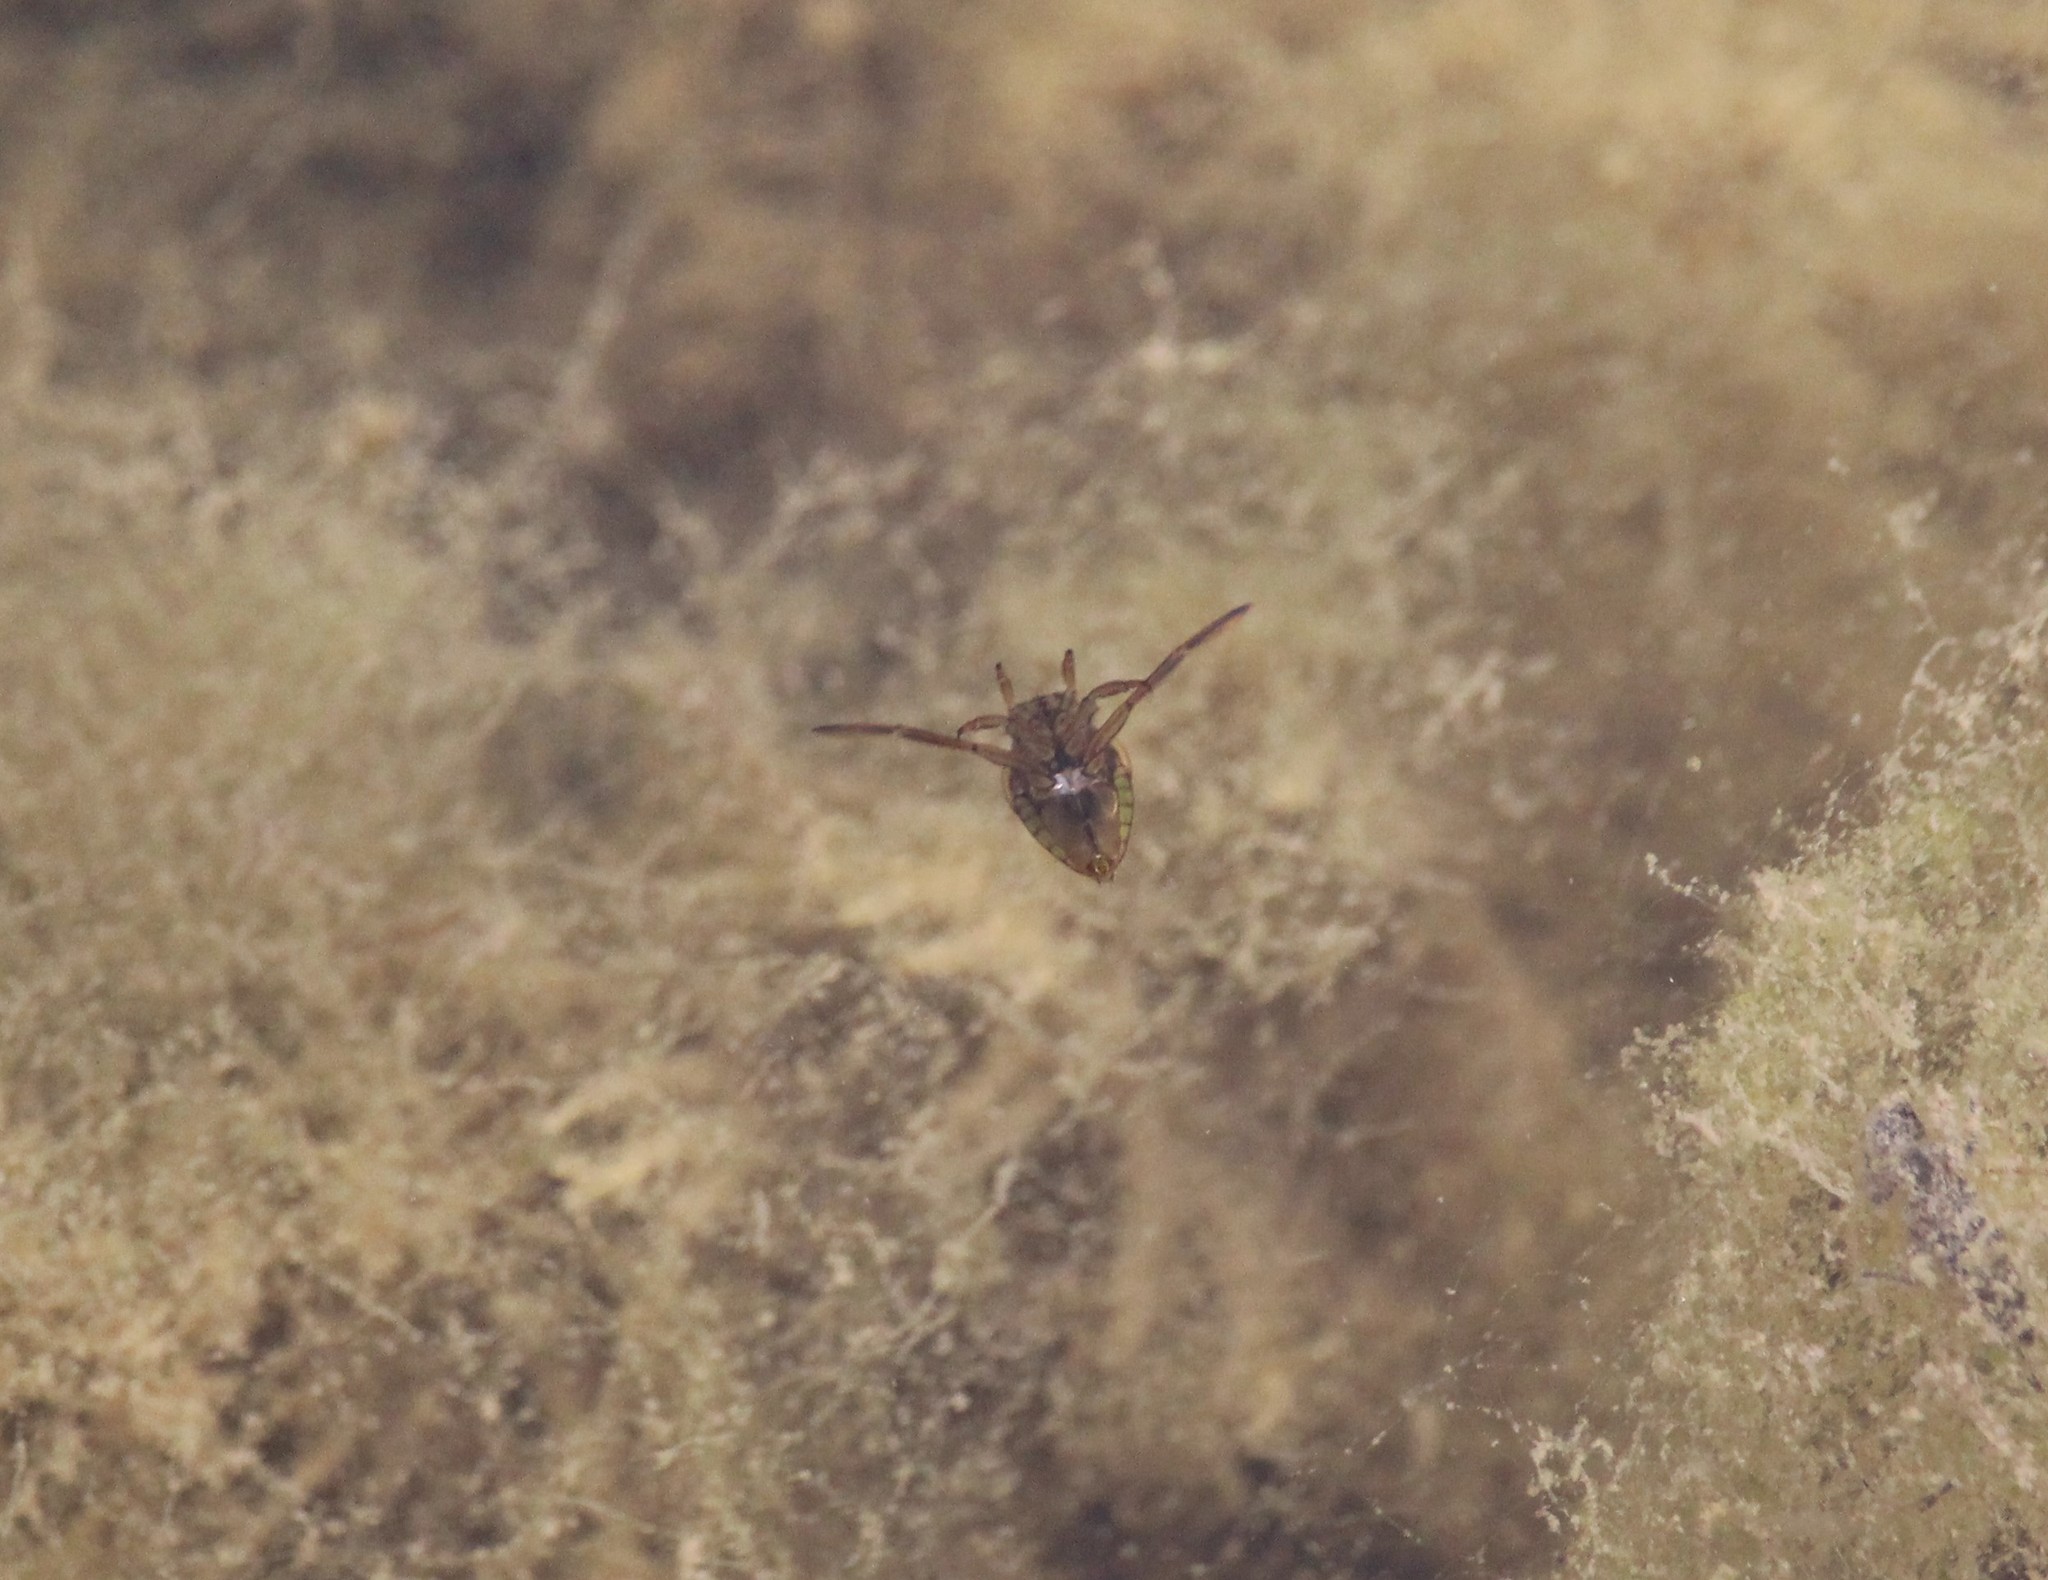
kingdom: Animalia
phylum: Arthropoda
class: Insecta
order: Hemiptera
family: Notonectidae
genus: Notonecta
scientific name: Notonecta
